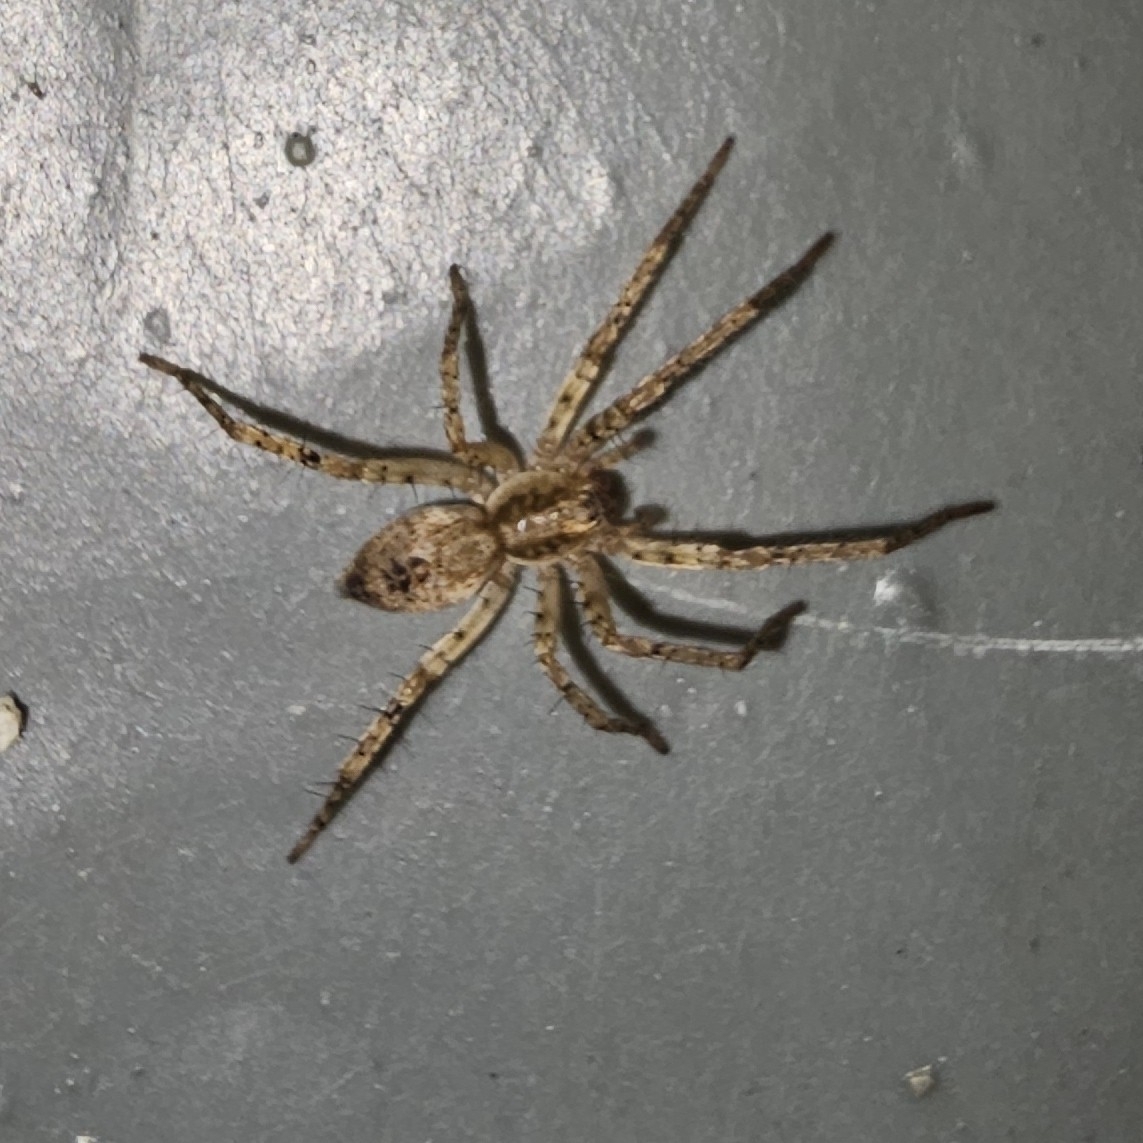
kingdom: Animalia
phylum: Arthropoda
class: Arachnida
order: Araneae
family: Anyphaenidae
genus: Anyphaena
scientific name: Anyphaena accentuata
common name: Buzzing spider
